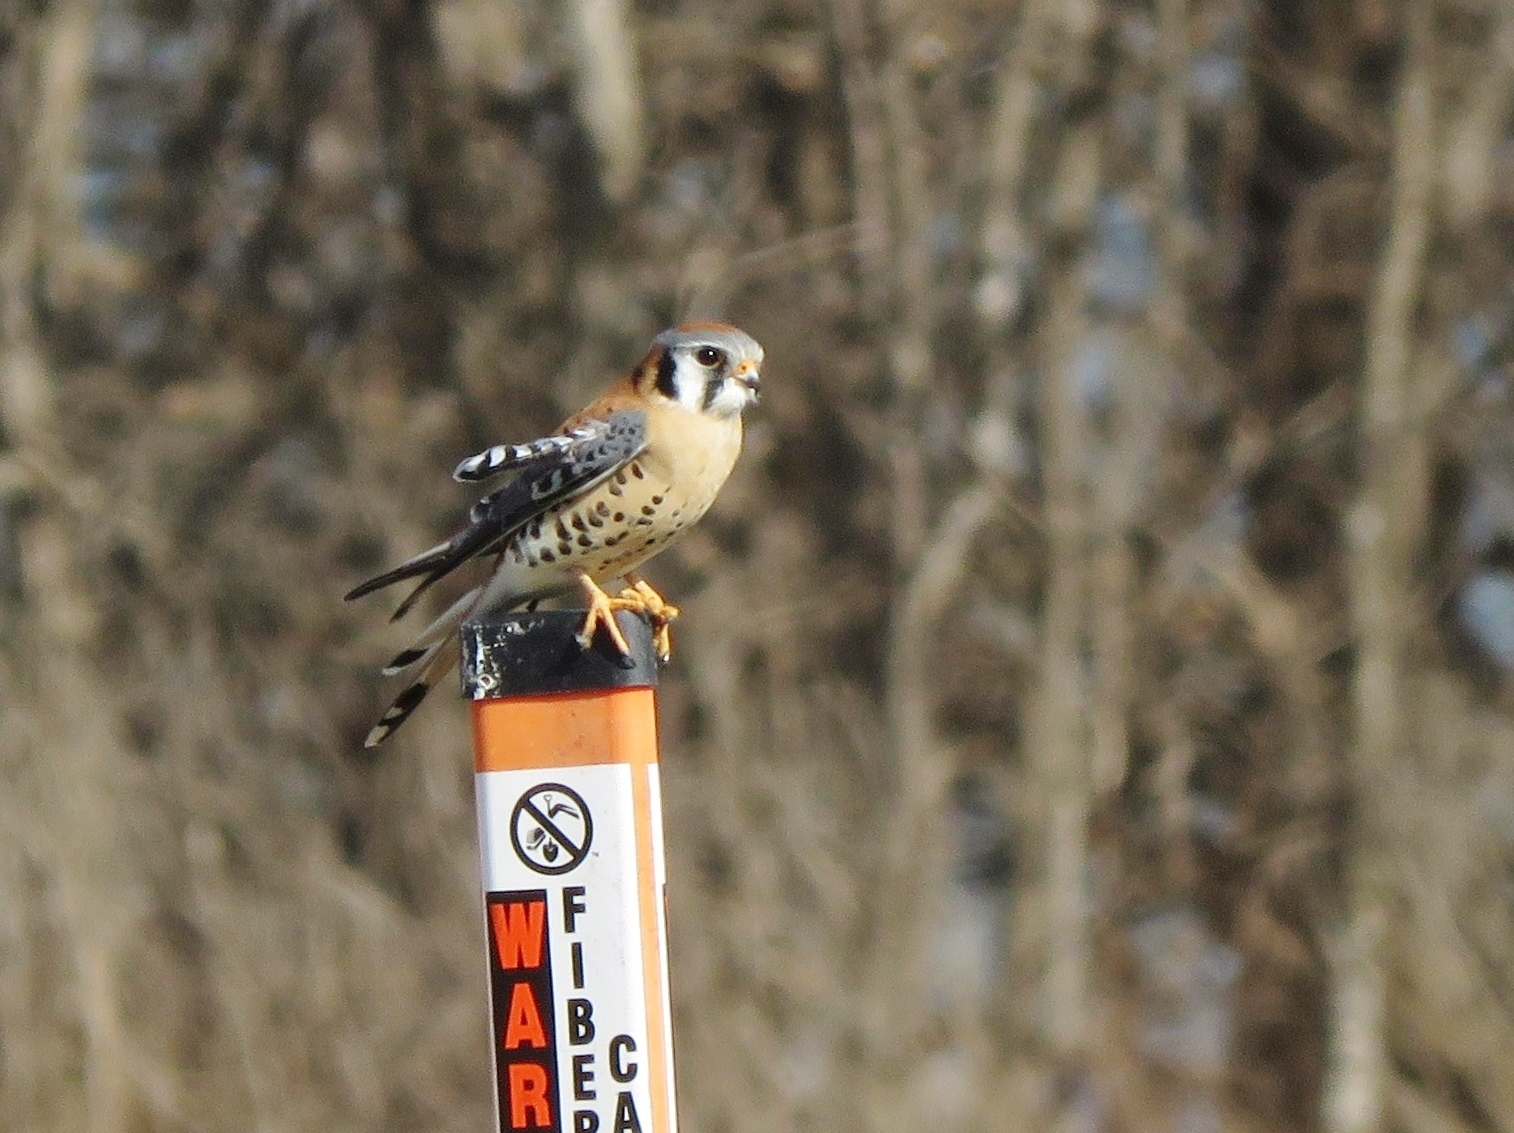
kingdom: Animalia
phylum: Chordata
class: Aves
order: Falconiformes
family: Falconidae
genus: Falco
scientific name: Falco sparverius
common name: American kestrel
